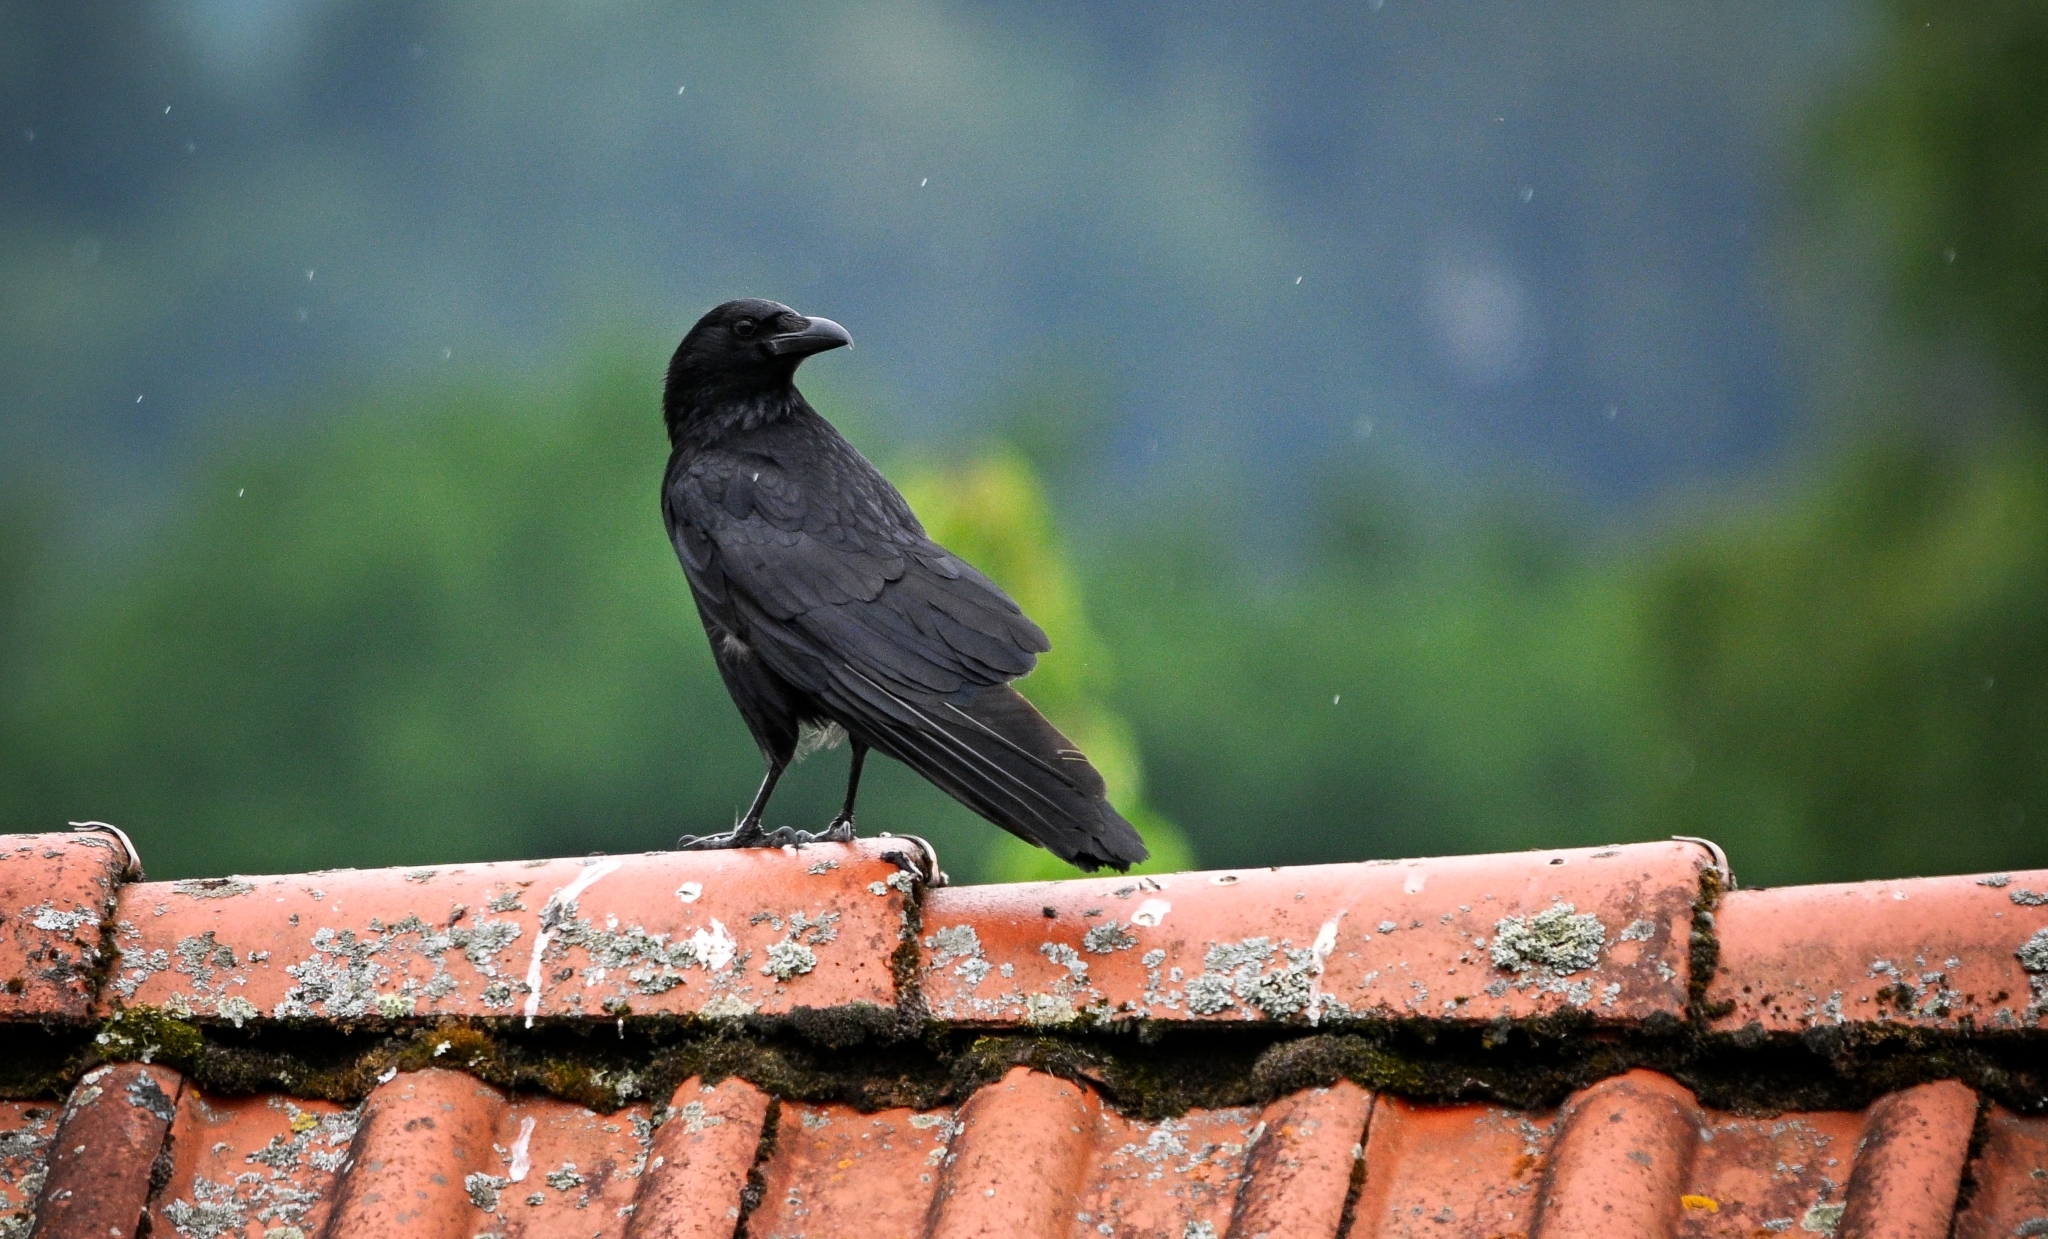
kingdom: Animalia
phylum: Chordata
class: Aves
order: Passeriformes
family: Corvidae
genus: Corvus
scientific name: Corvus corone
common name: Carrion crow
